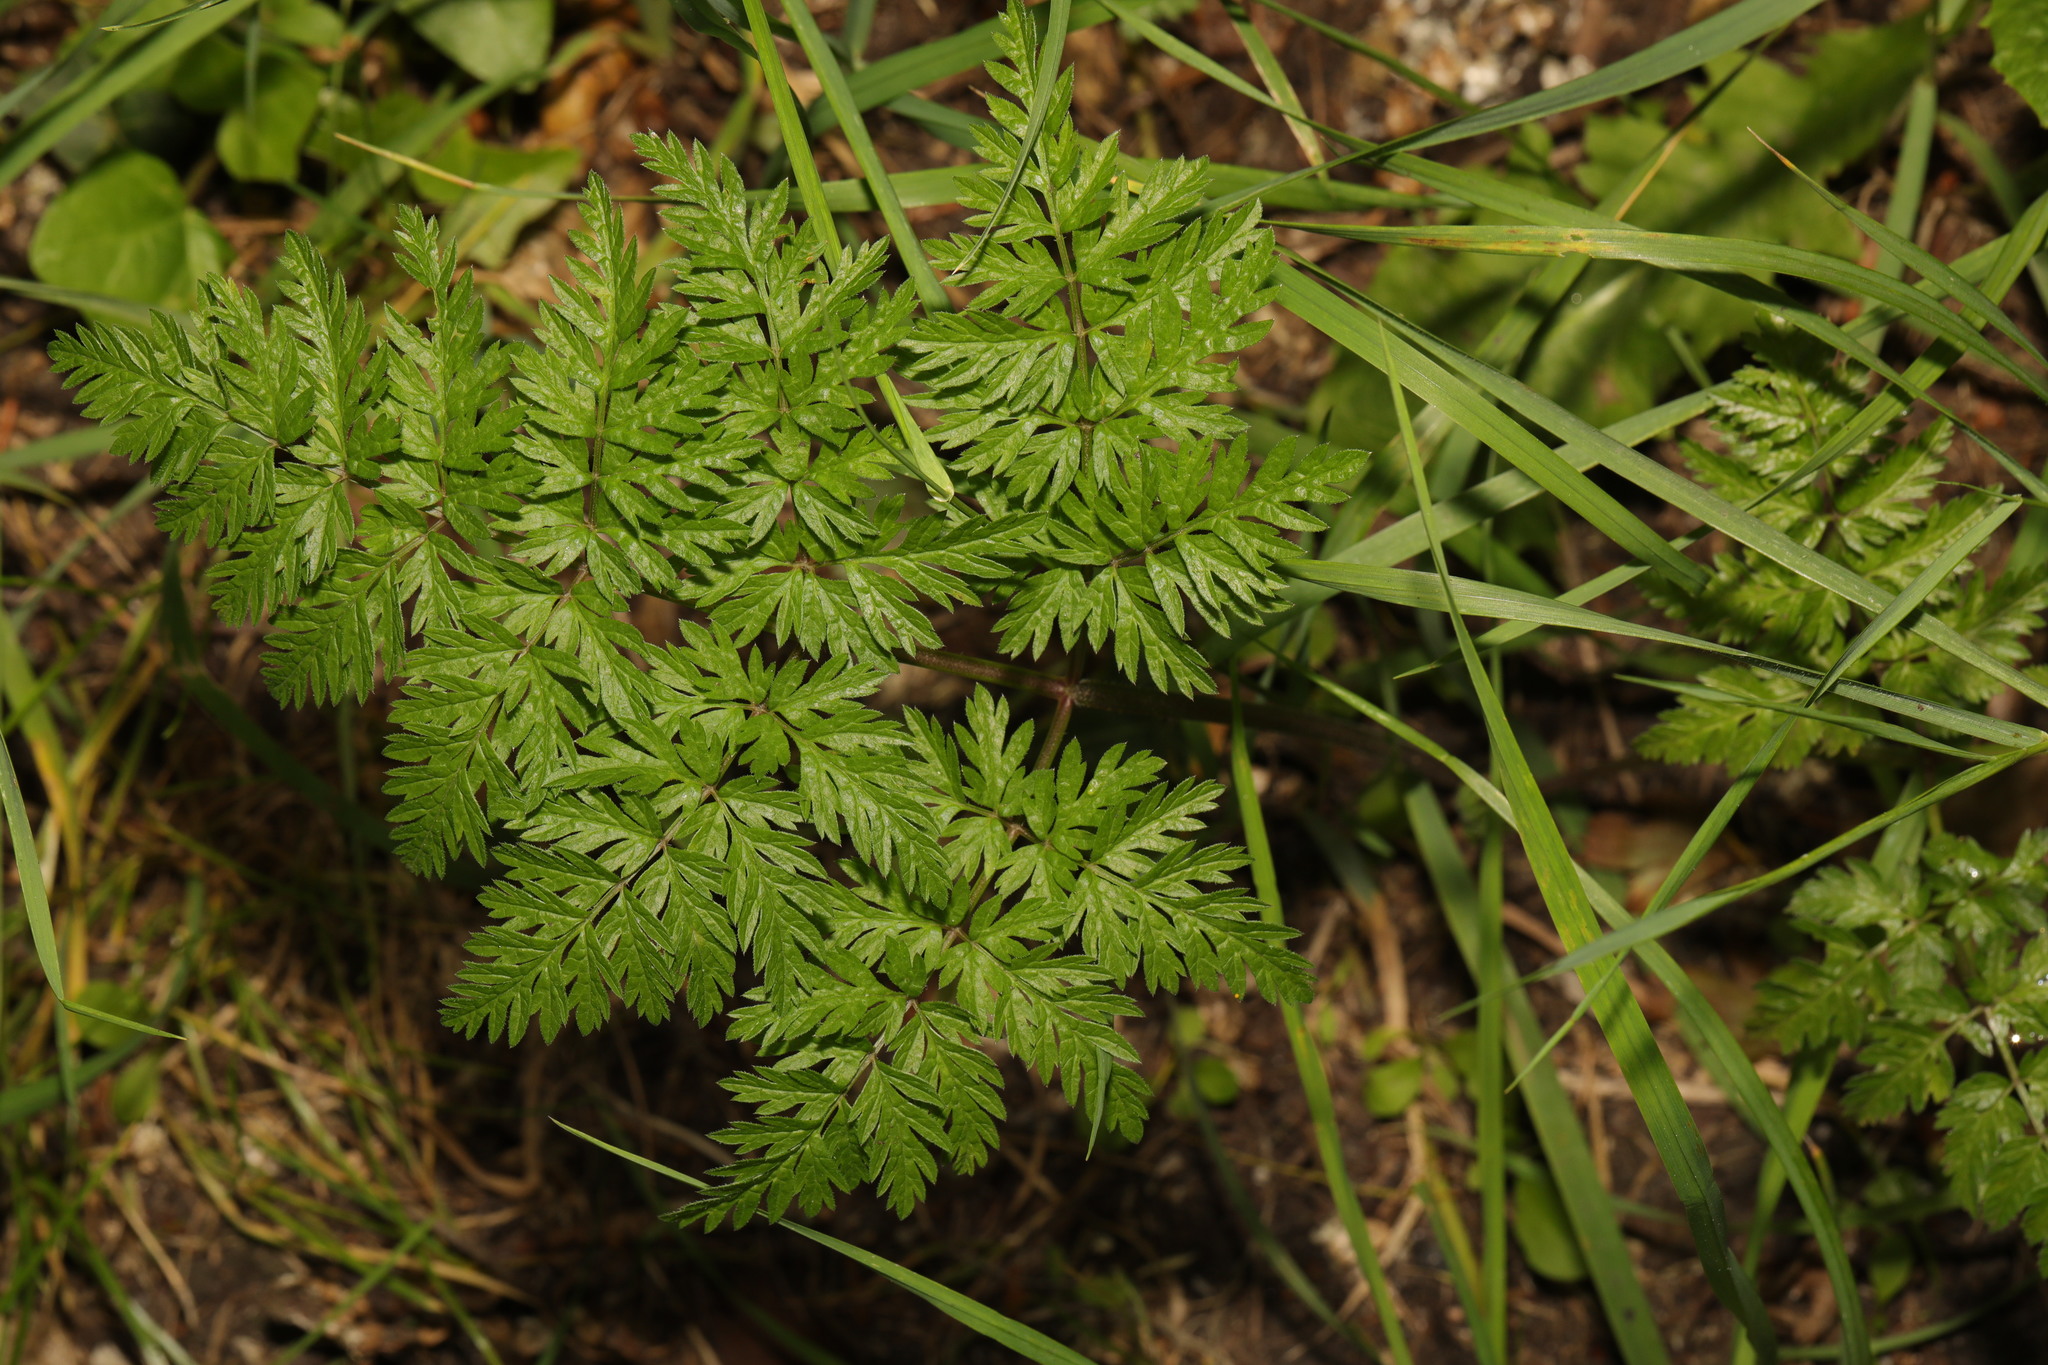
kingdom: Plantae
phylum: Tracheophyta
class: Magnoliopsida
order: Apiales
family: Apiaceae
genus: Anthriscus
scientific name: Anthriscus sylvestris
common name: Cow parsley
